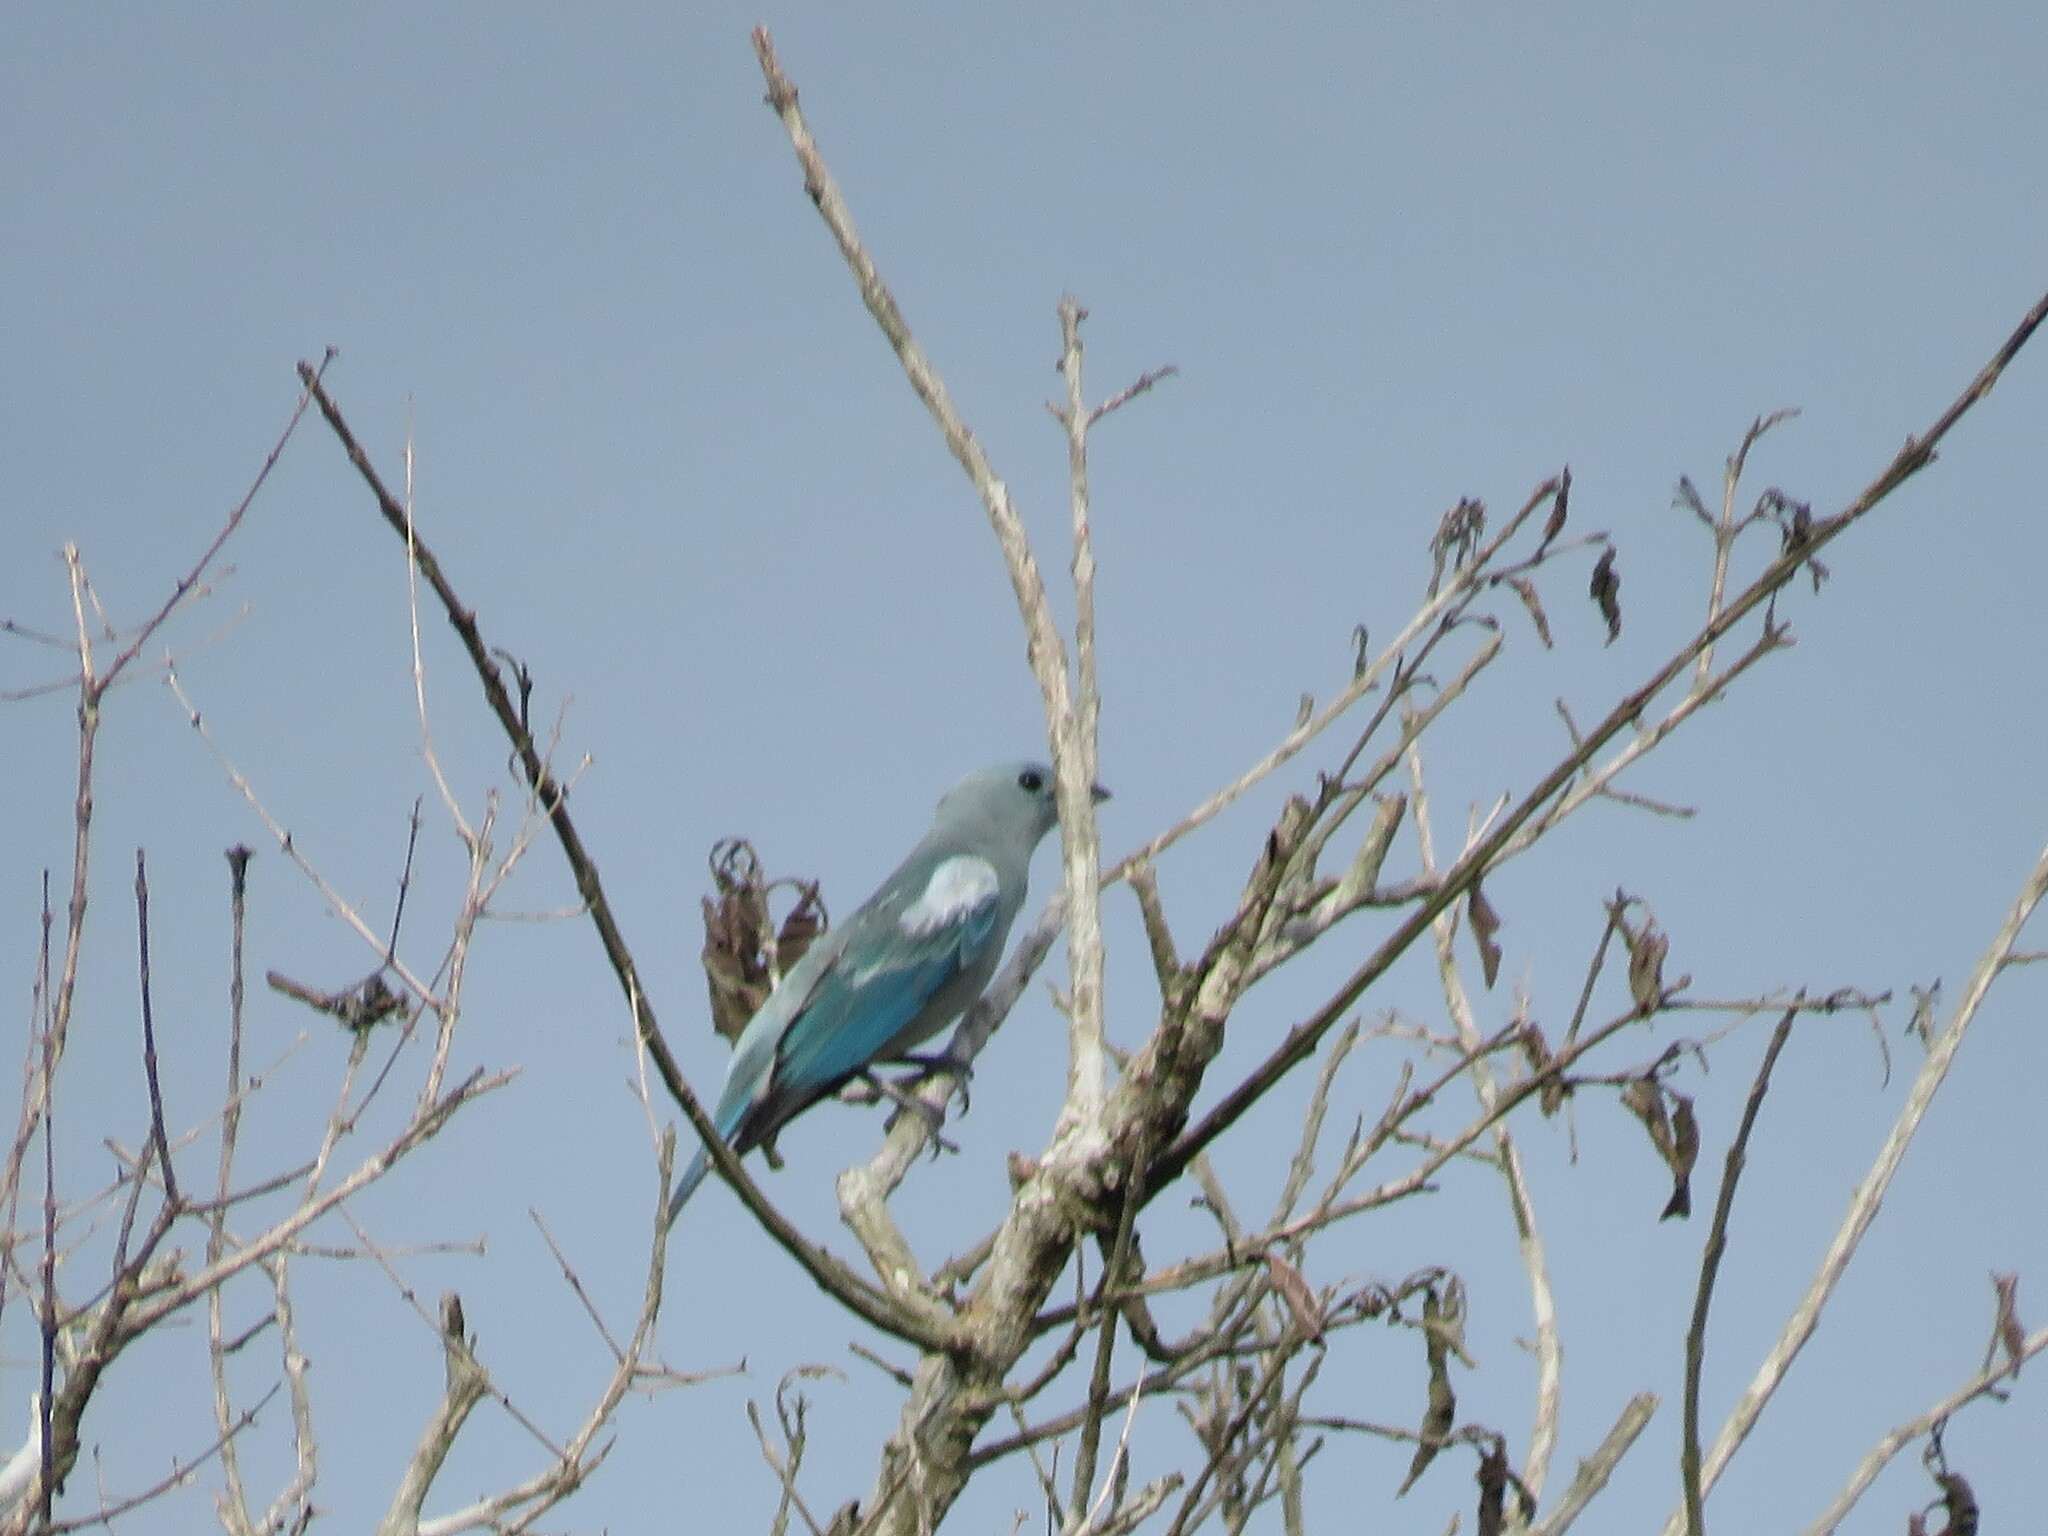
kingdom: Animalia
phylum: Chordata
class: Aves
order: Passeriformes
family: Thraupidae
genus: Thraupis
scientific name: Thraupis episcopus
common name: Blue-grey tanager
